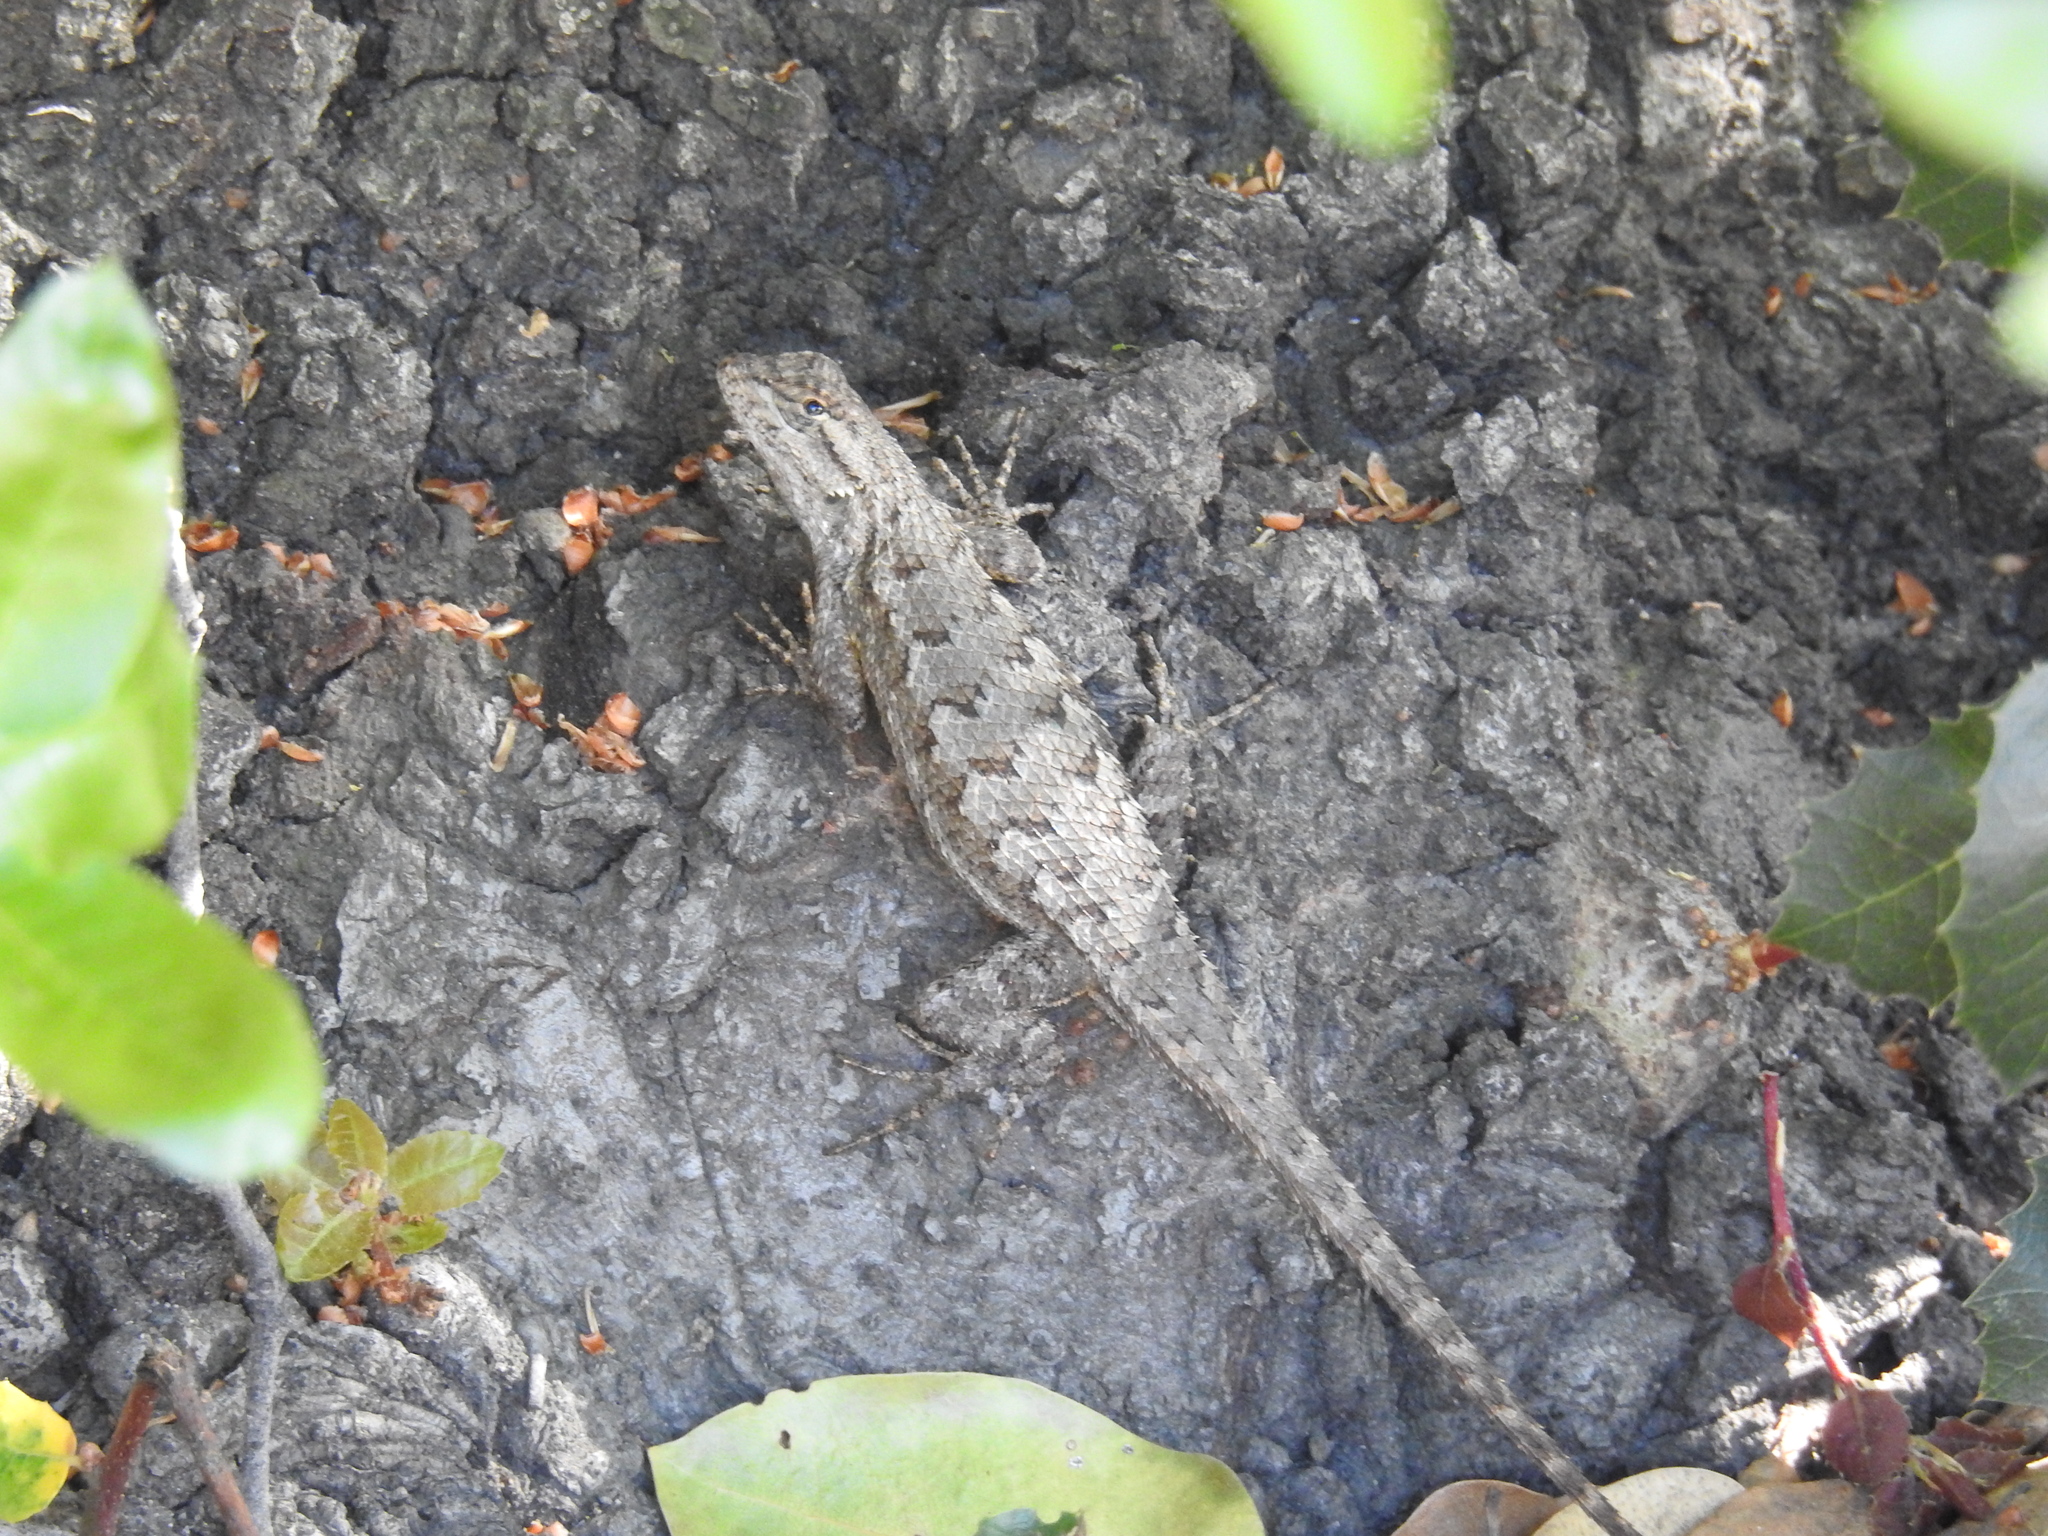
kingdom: Animalia
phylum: Chordata
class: Squamata
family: Phrynosomatidae
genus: Sceloporus
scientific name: Sceloporus occidentalis
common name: Western fence lizard
